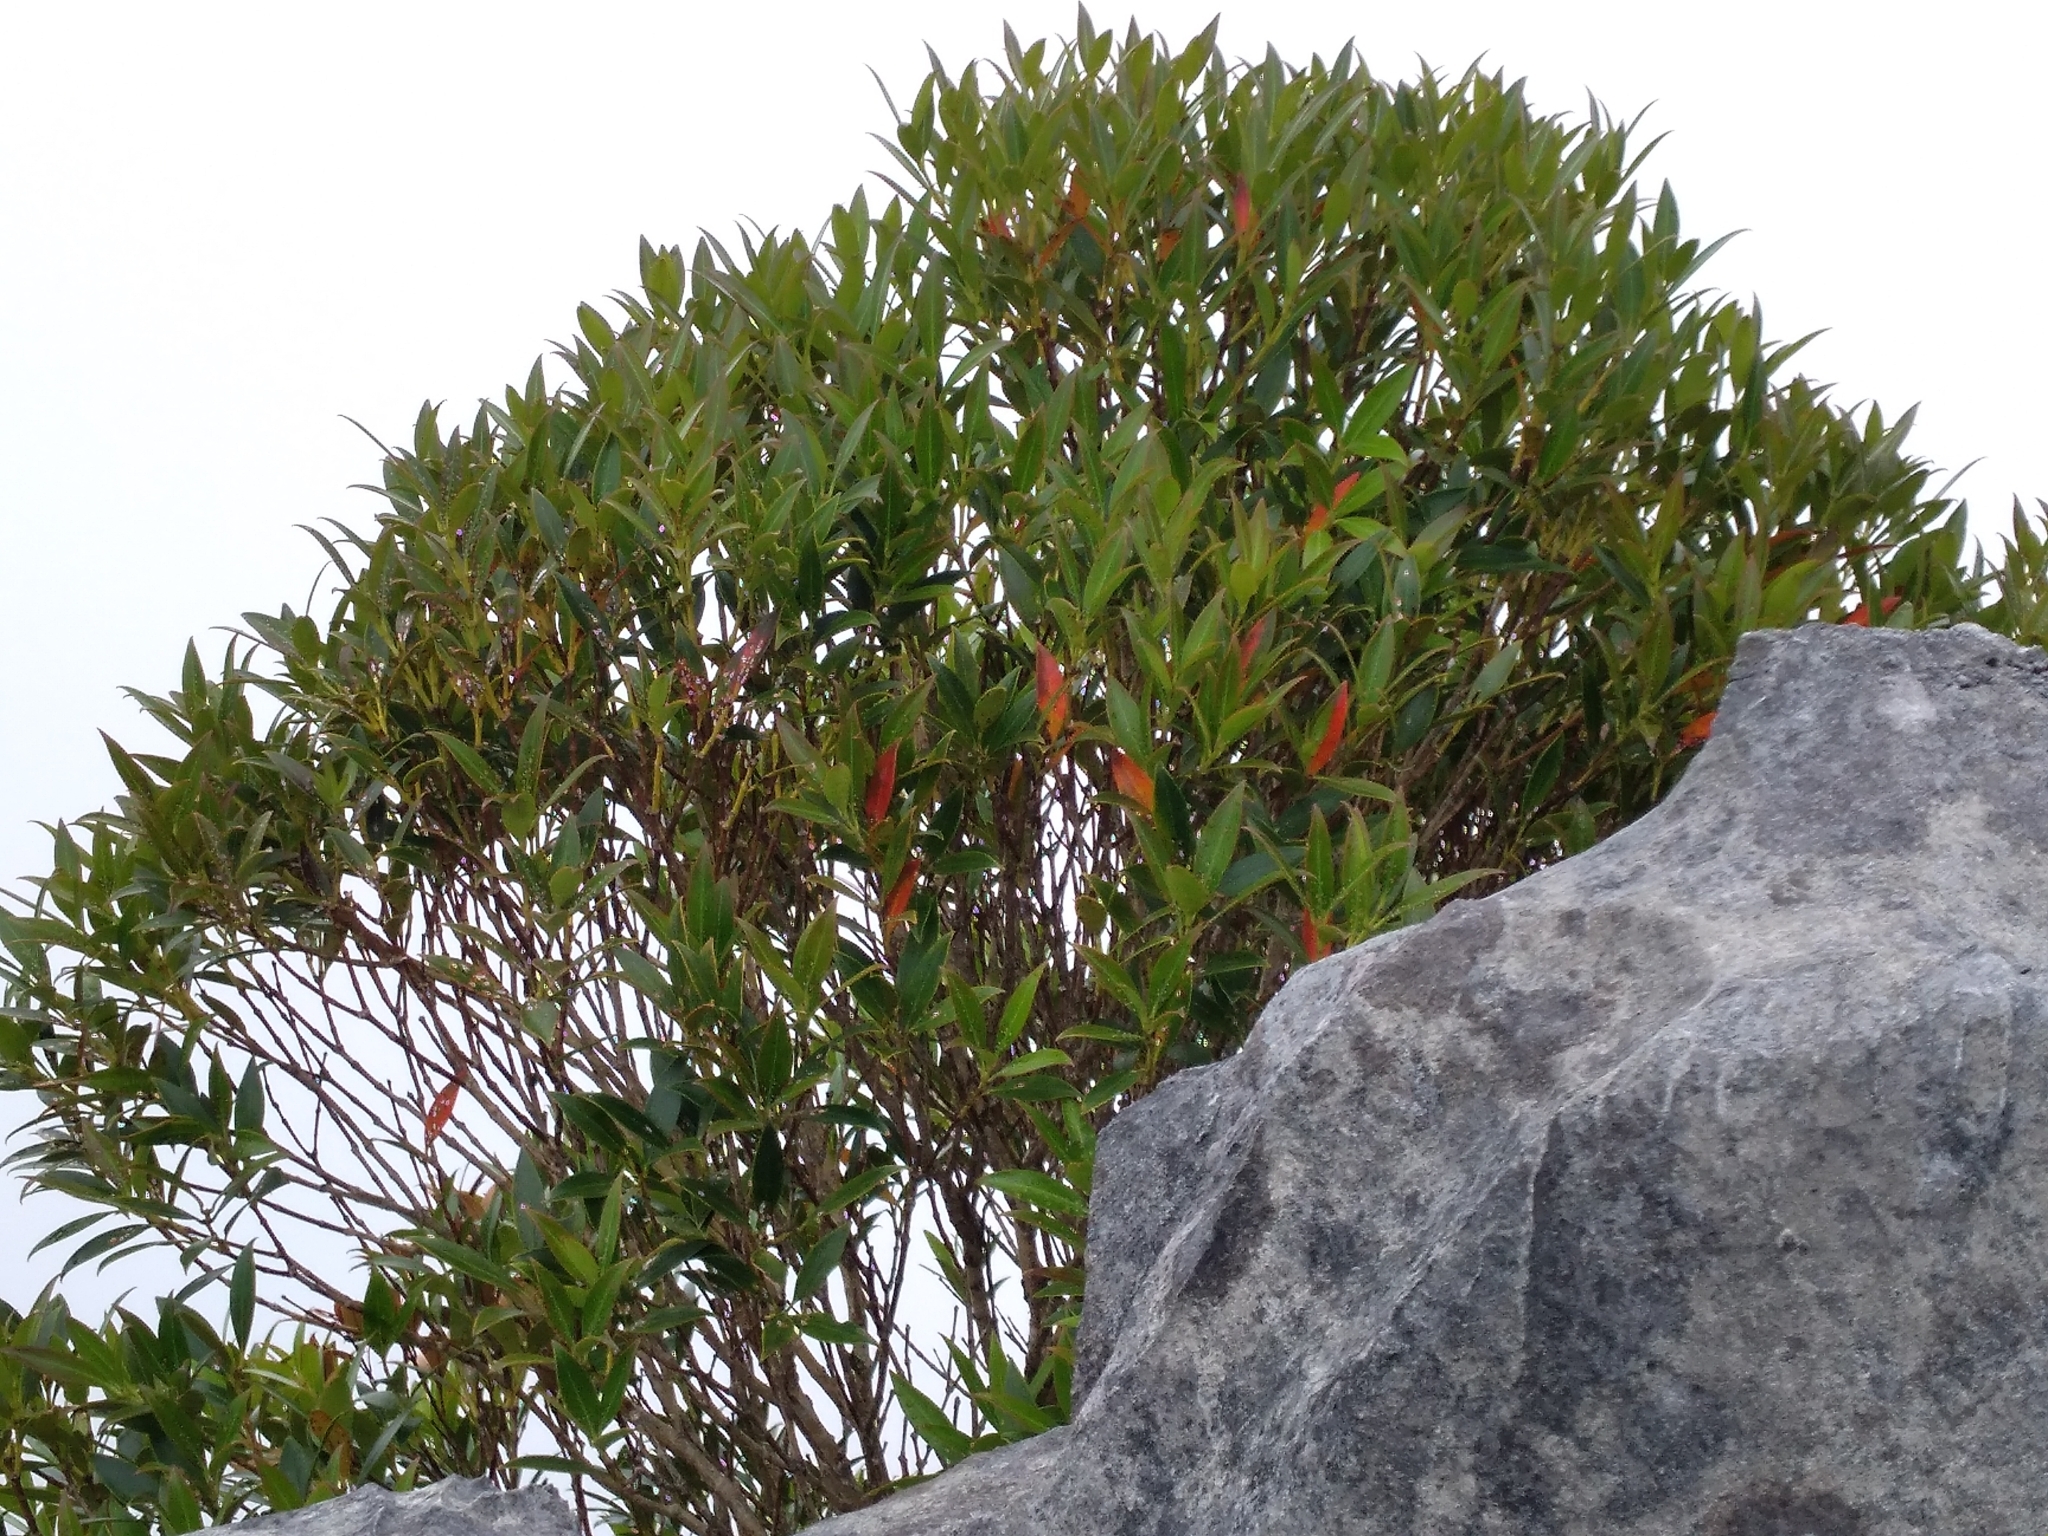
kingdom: Plantae
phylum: Tracheophyta
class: Magnoliopsida
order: Myrtales
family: Myrtaceae
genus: Metrosideros
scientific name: Metrosideros umbellata
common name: Southern rata
